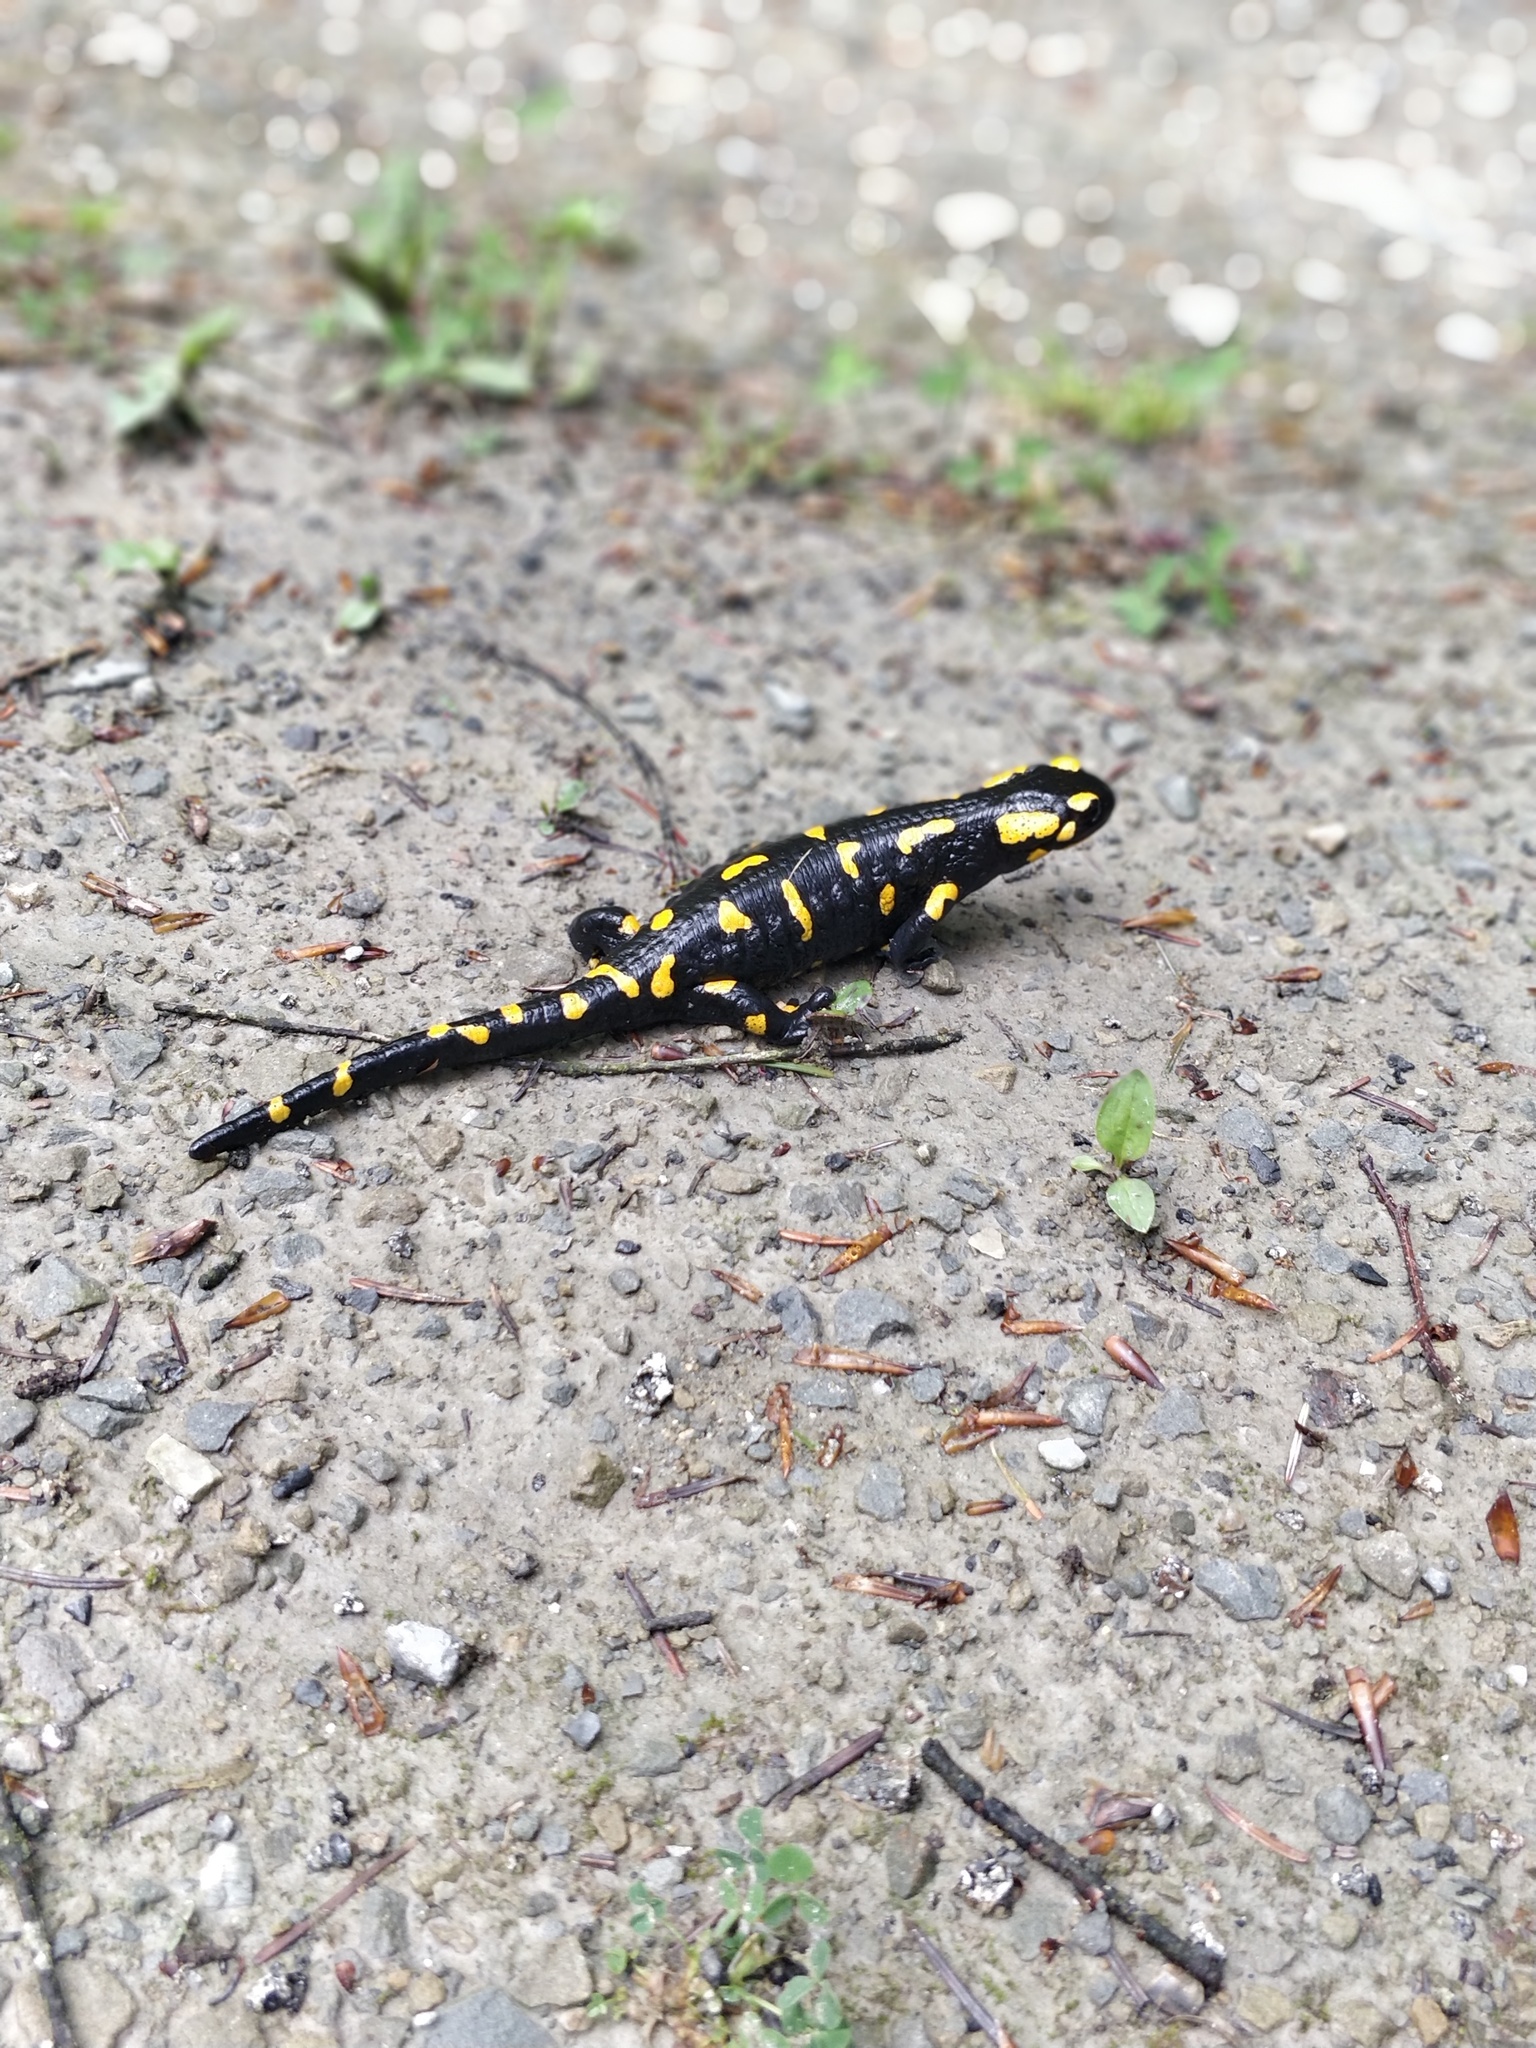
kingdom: Animalia
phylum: Chordata
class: Amphibia
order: Caudata
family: Salamandridae
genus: Salamandra
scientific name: Salamandra salamandra
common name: Fire salamander
